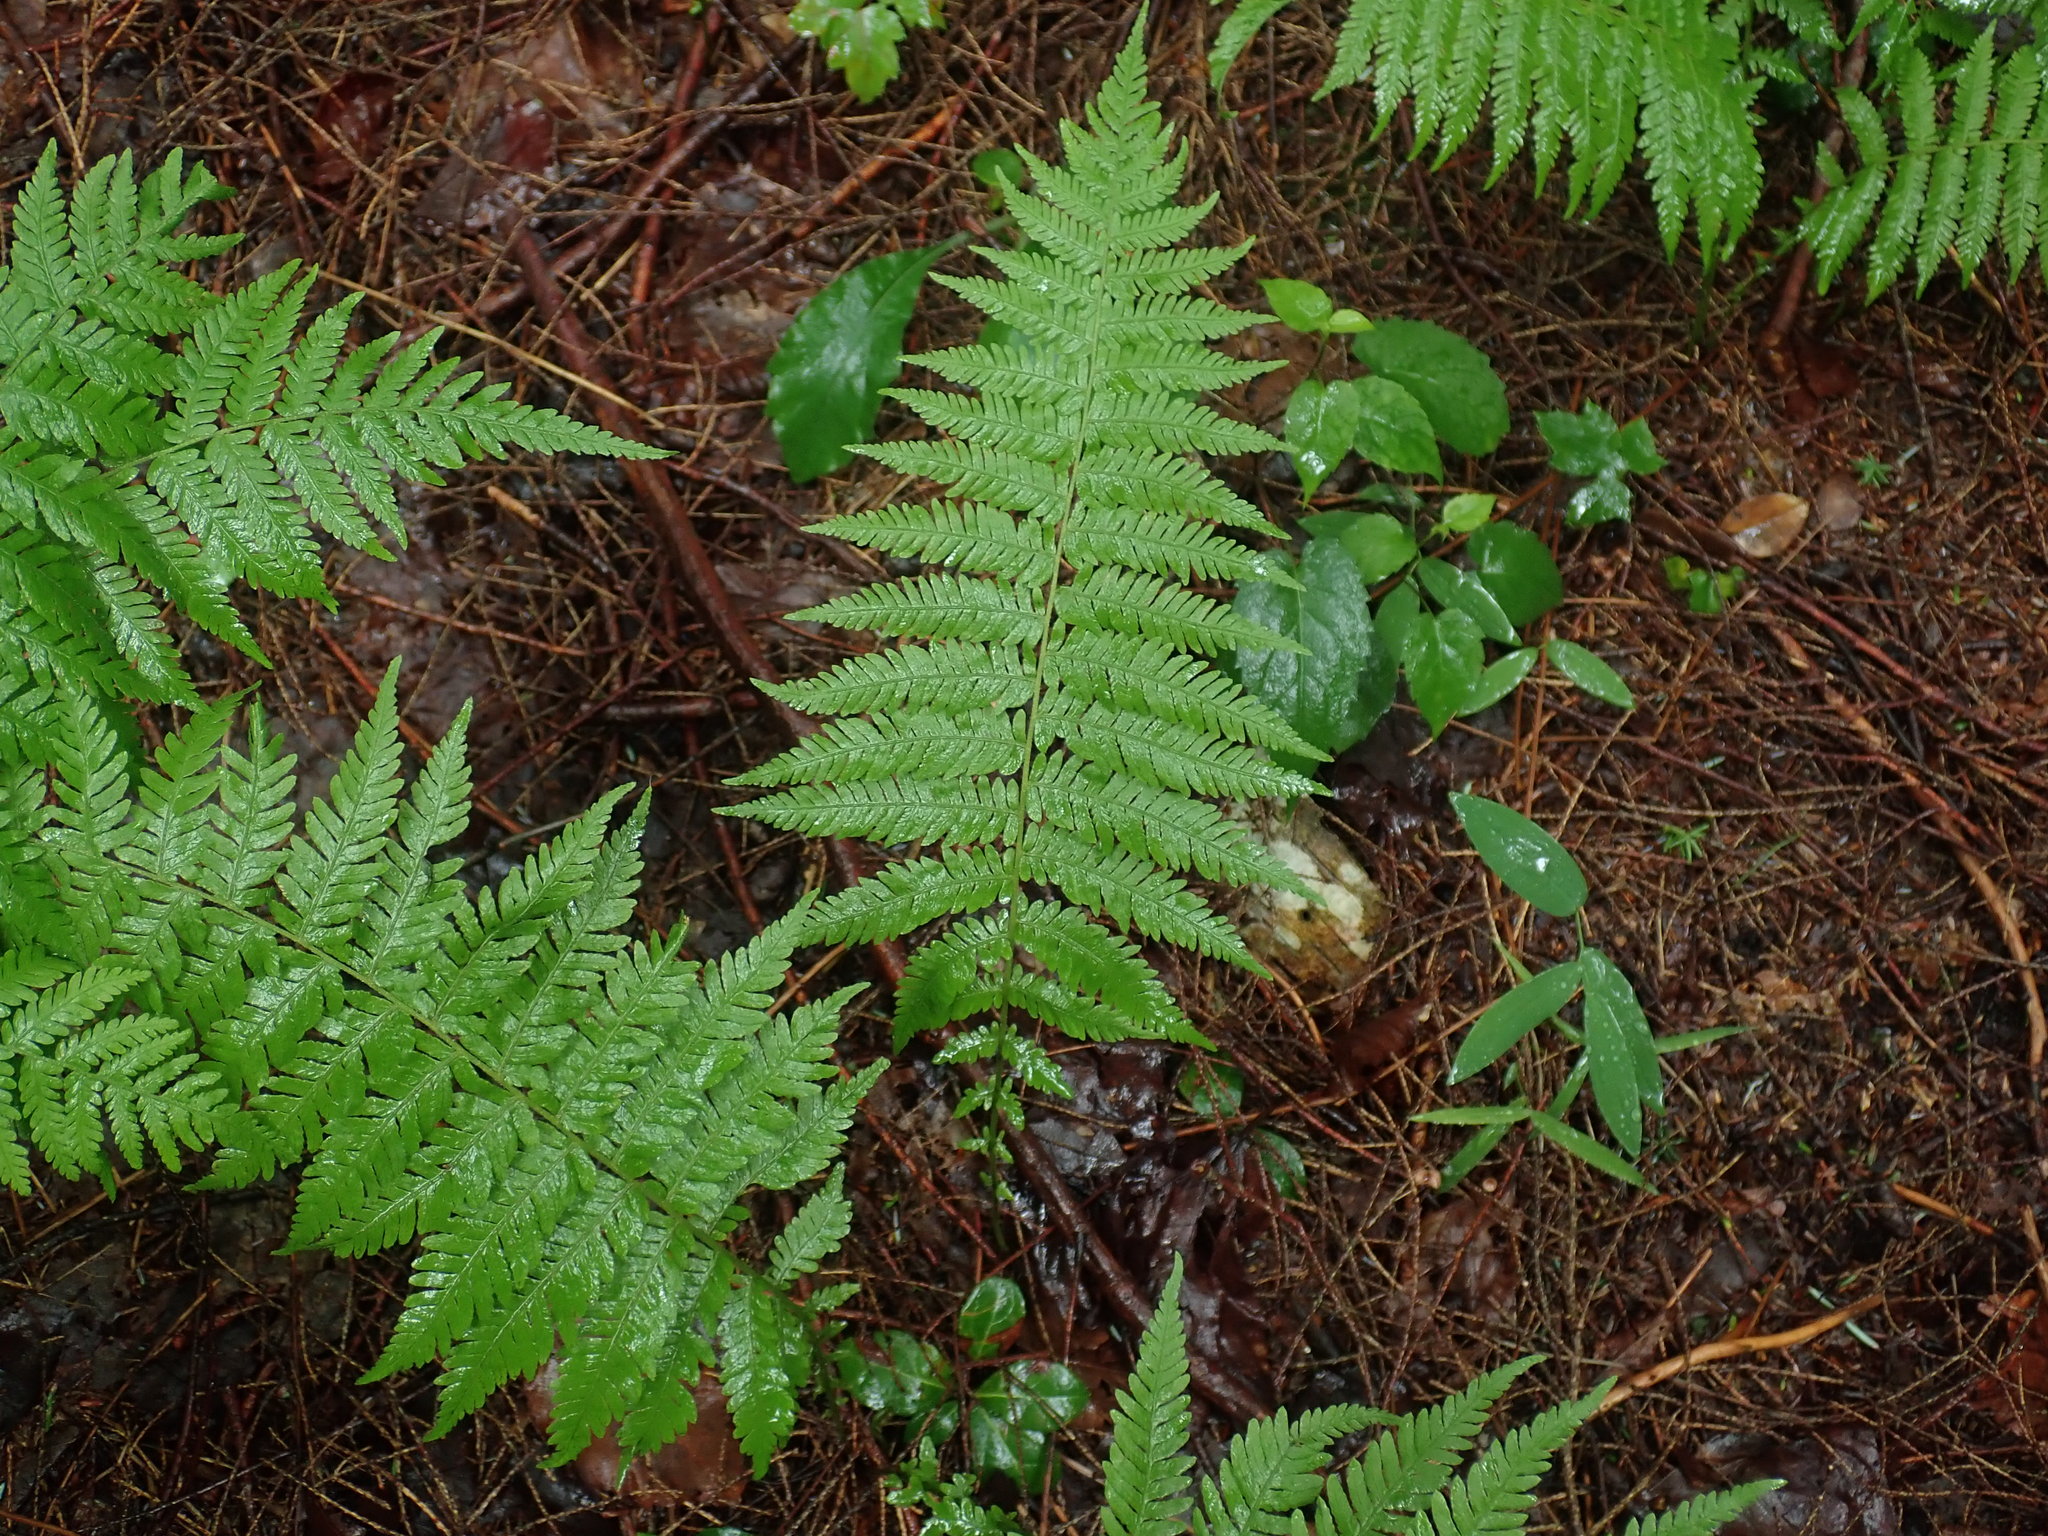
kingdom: Plantae
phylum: Tracheophyta
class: Polypodiopsida
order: Polypodiales
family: Thelypteridaceae
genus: Amauropelta
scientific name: Amauropelta noveboracensis
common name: New york fern
